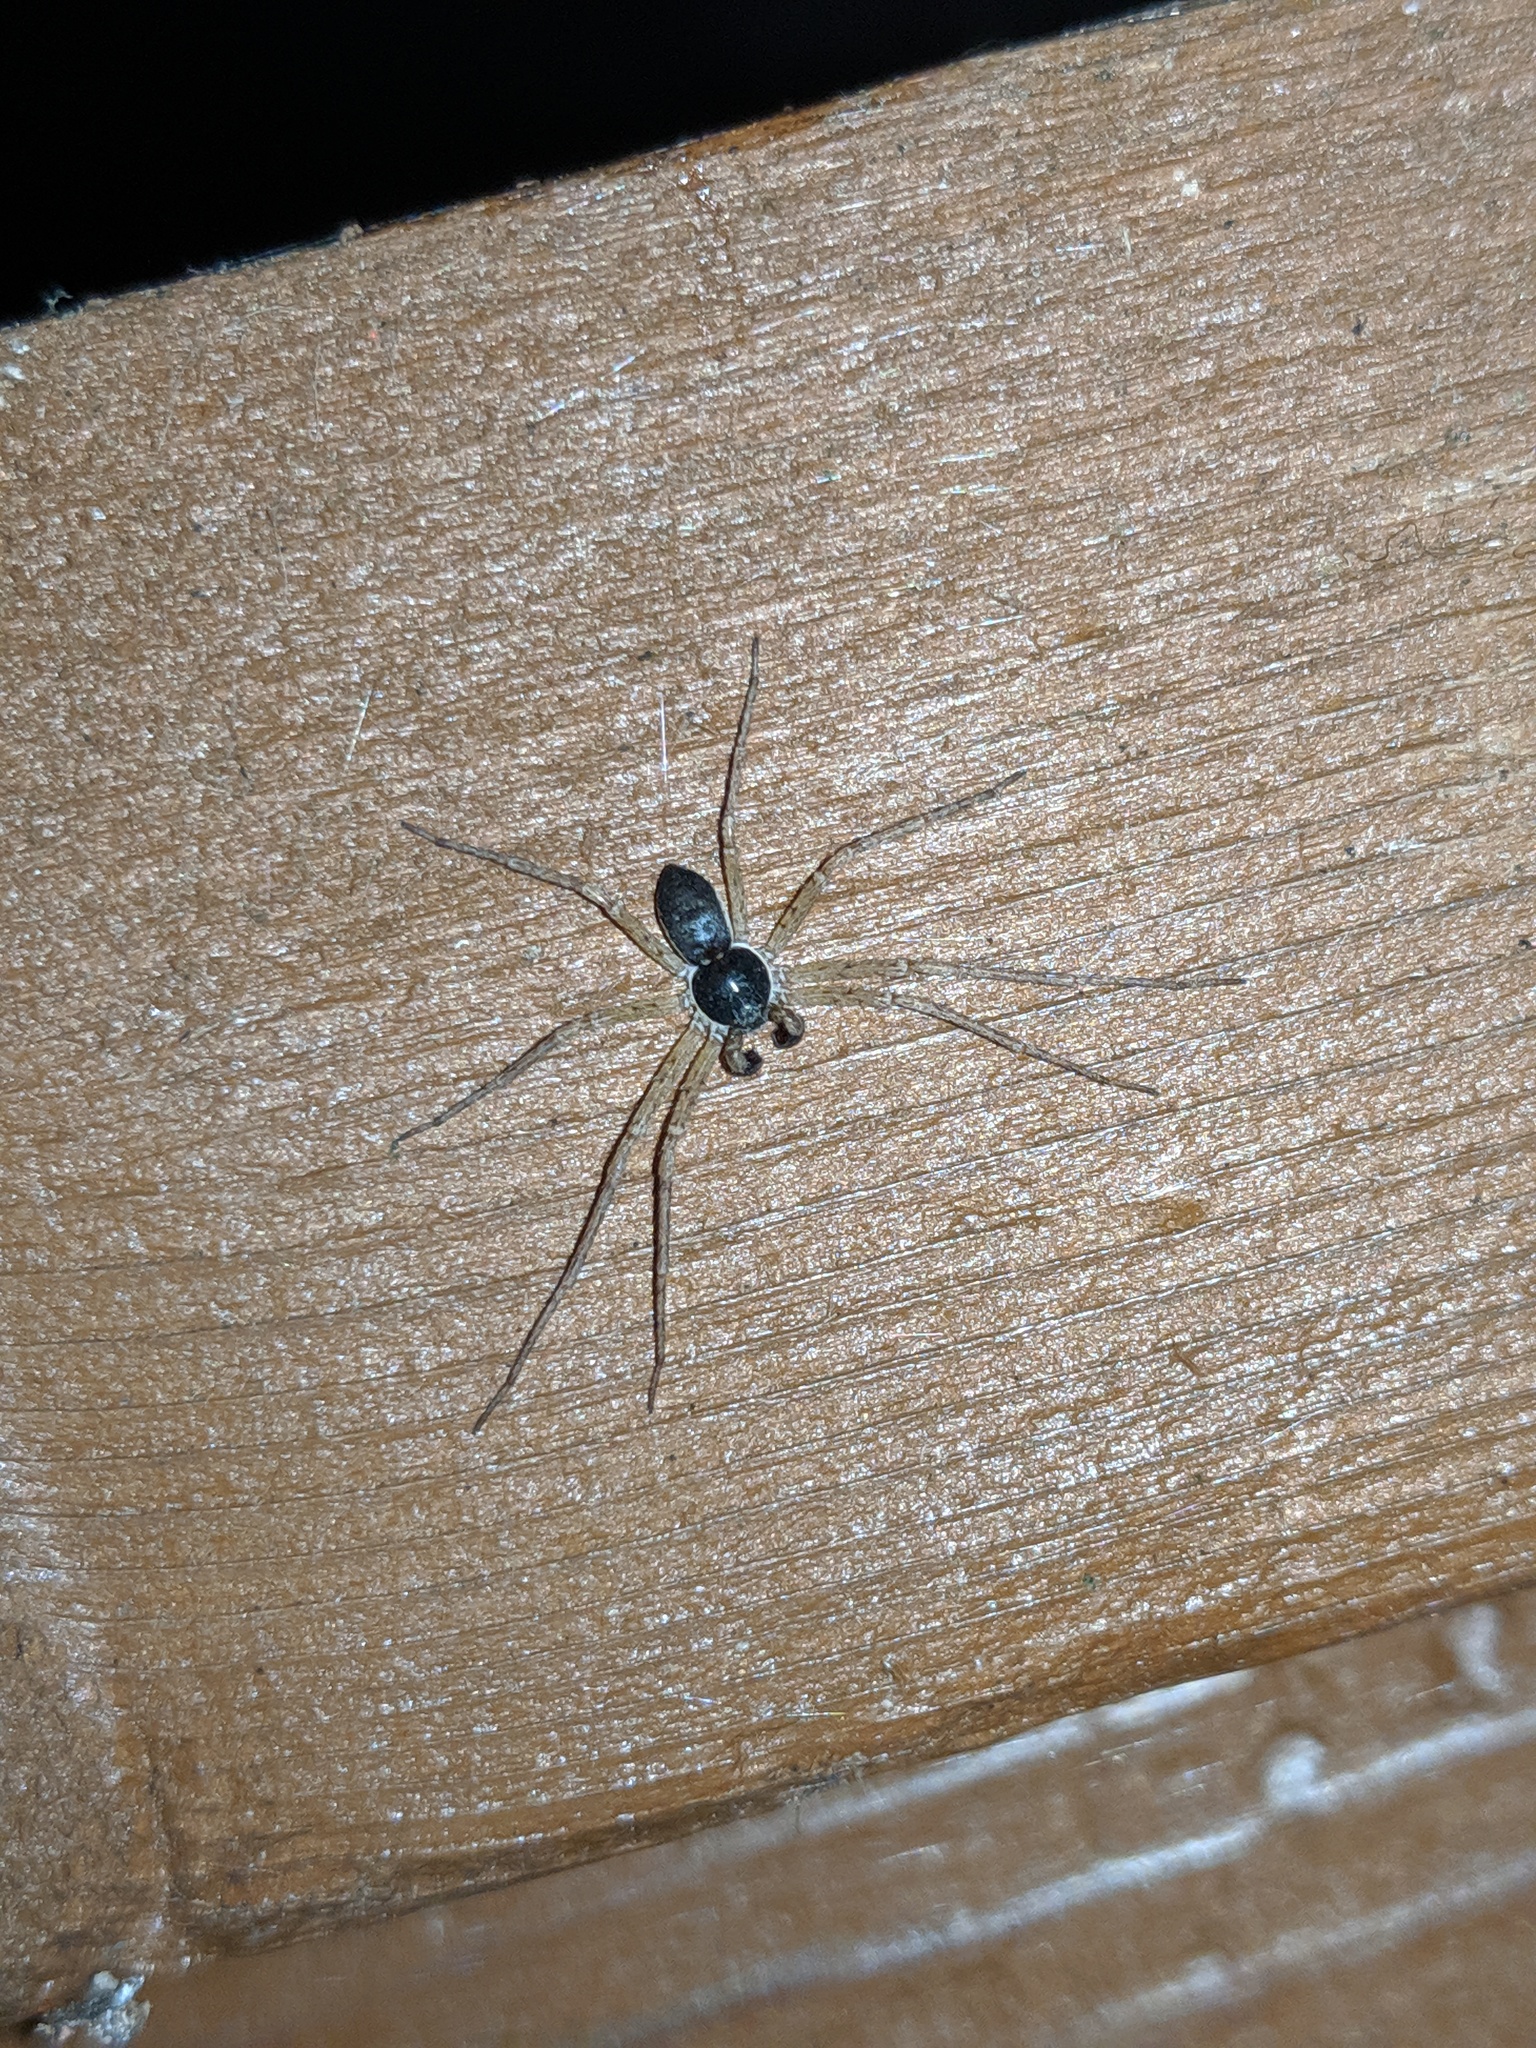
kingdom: Animalia
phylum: Arthropoda
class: Arachnida
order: Araneae
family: Philodromidae
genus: Philodromus
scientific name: Philodromus dispar
